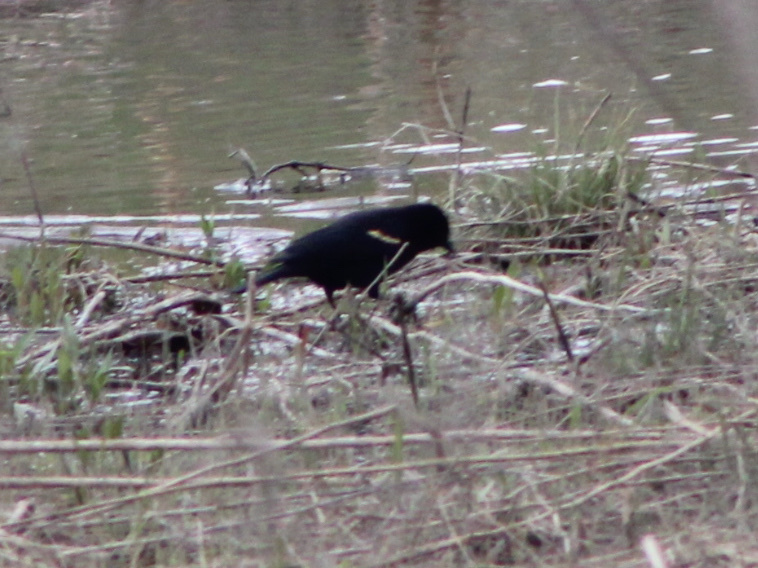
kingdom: Animalia
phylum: Chordata
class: Aves
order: Passeriformes
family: Icteridae
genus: Agelaius
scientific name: Agelaius phoeniceus
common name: Red-winged blackbird
